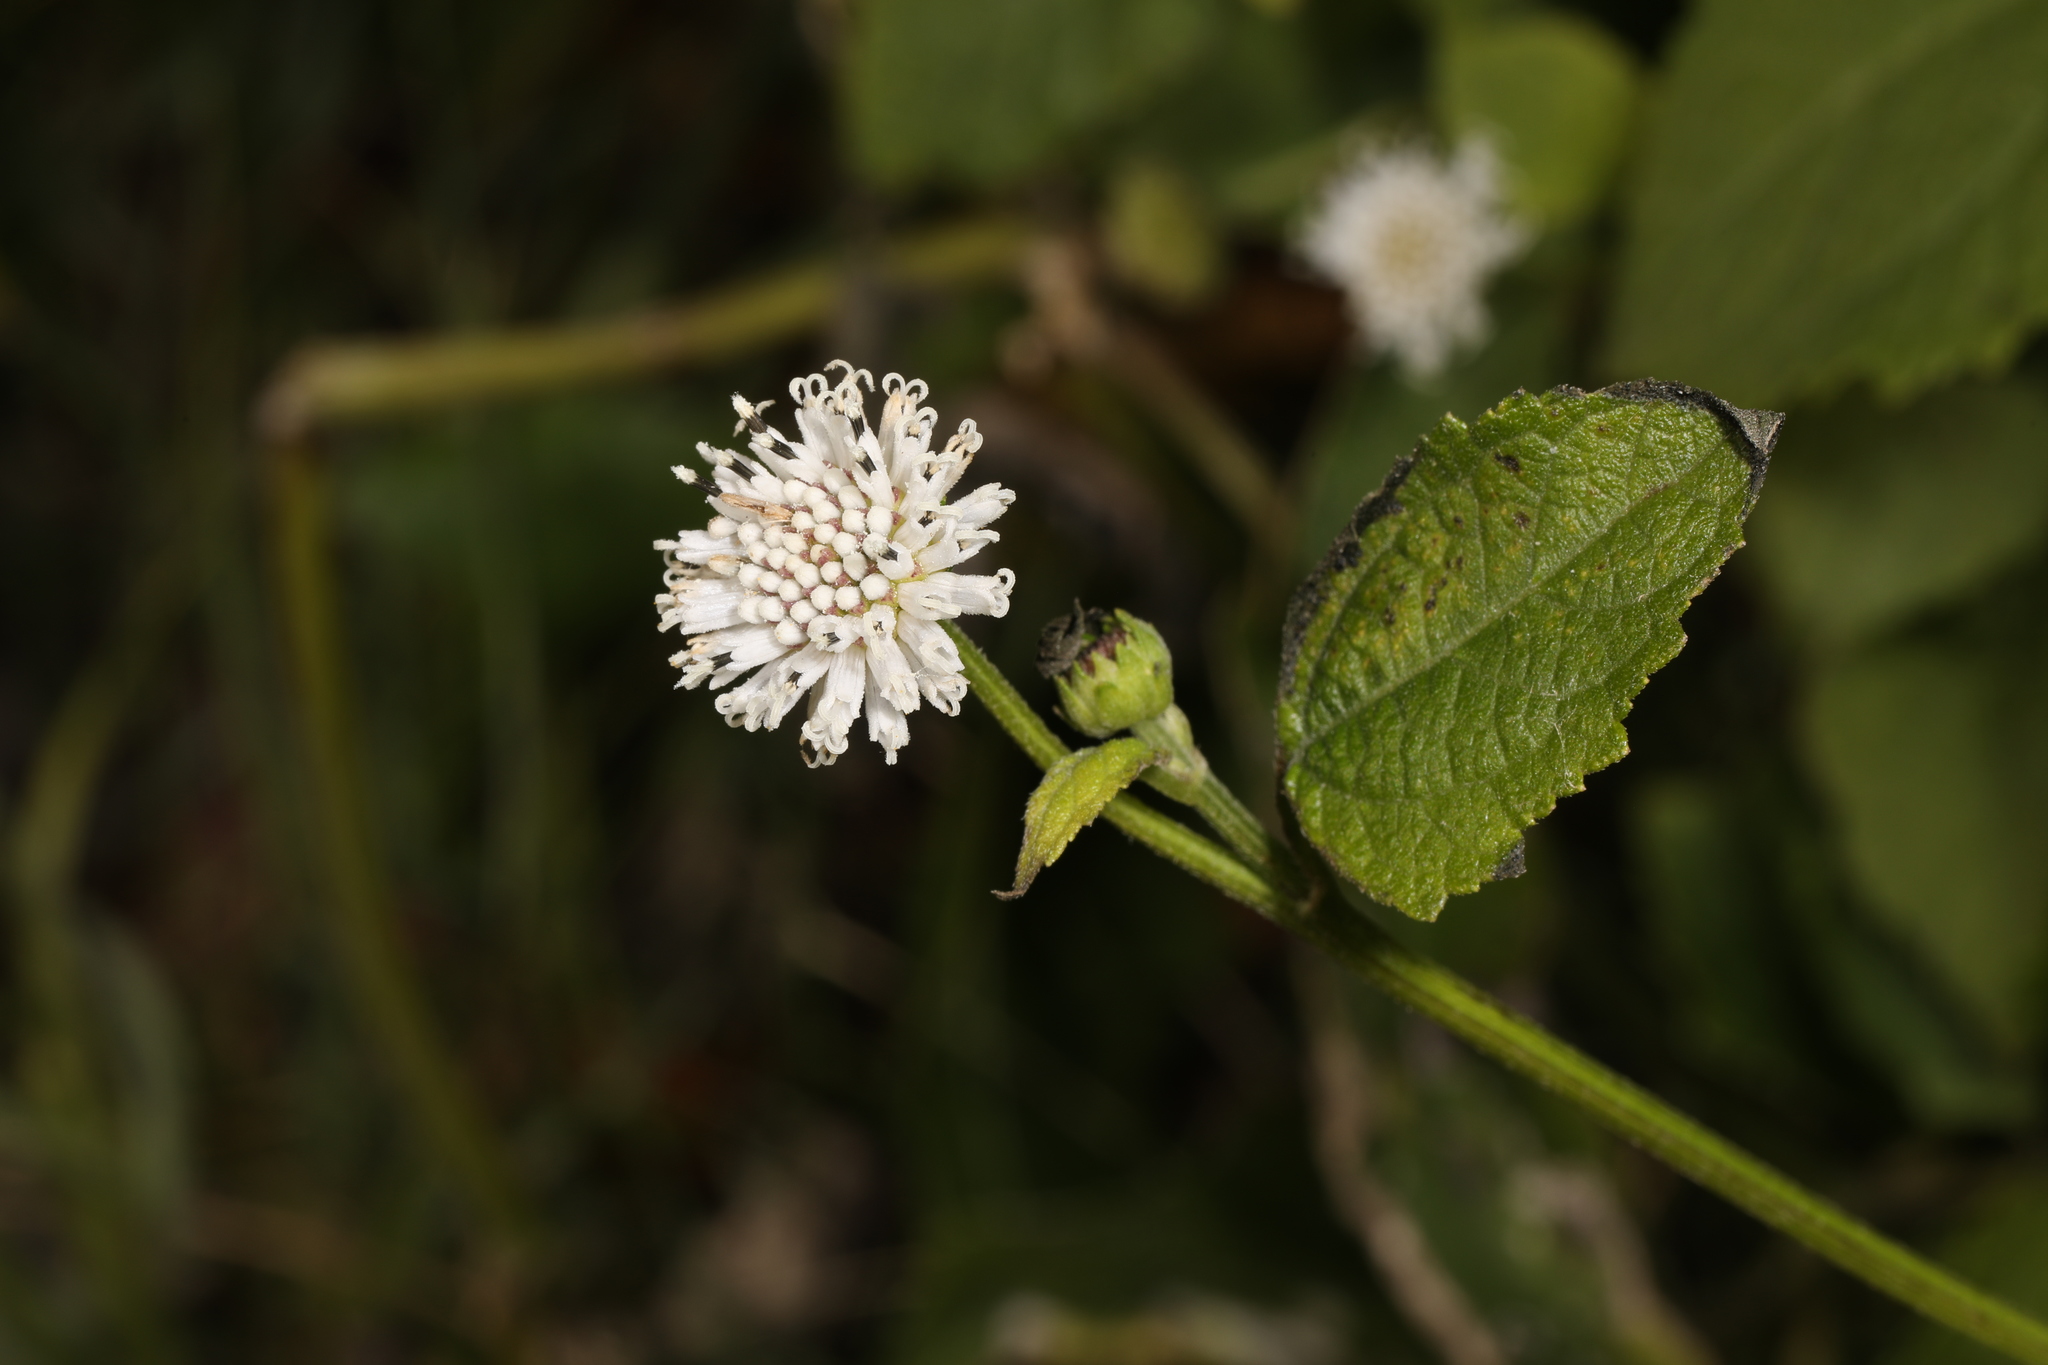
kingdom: Plantae
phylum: Tracheophyta
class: Magnoliopsida
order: Asterales
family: Asteraceae
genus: Melanthera
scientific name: Melanthera nivea
